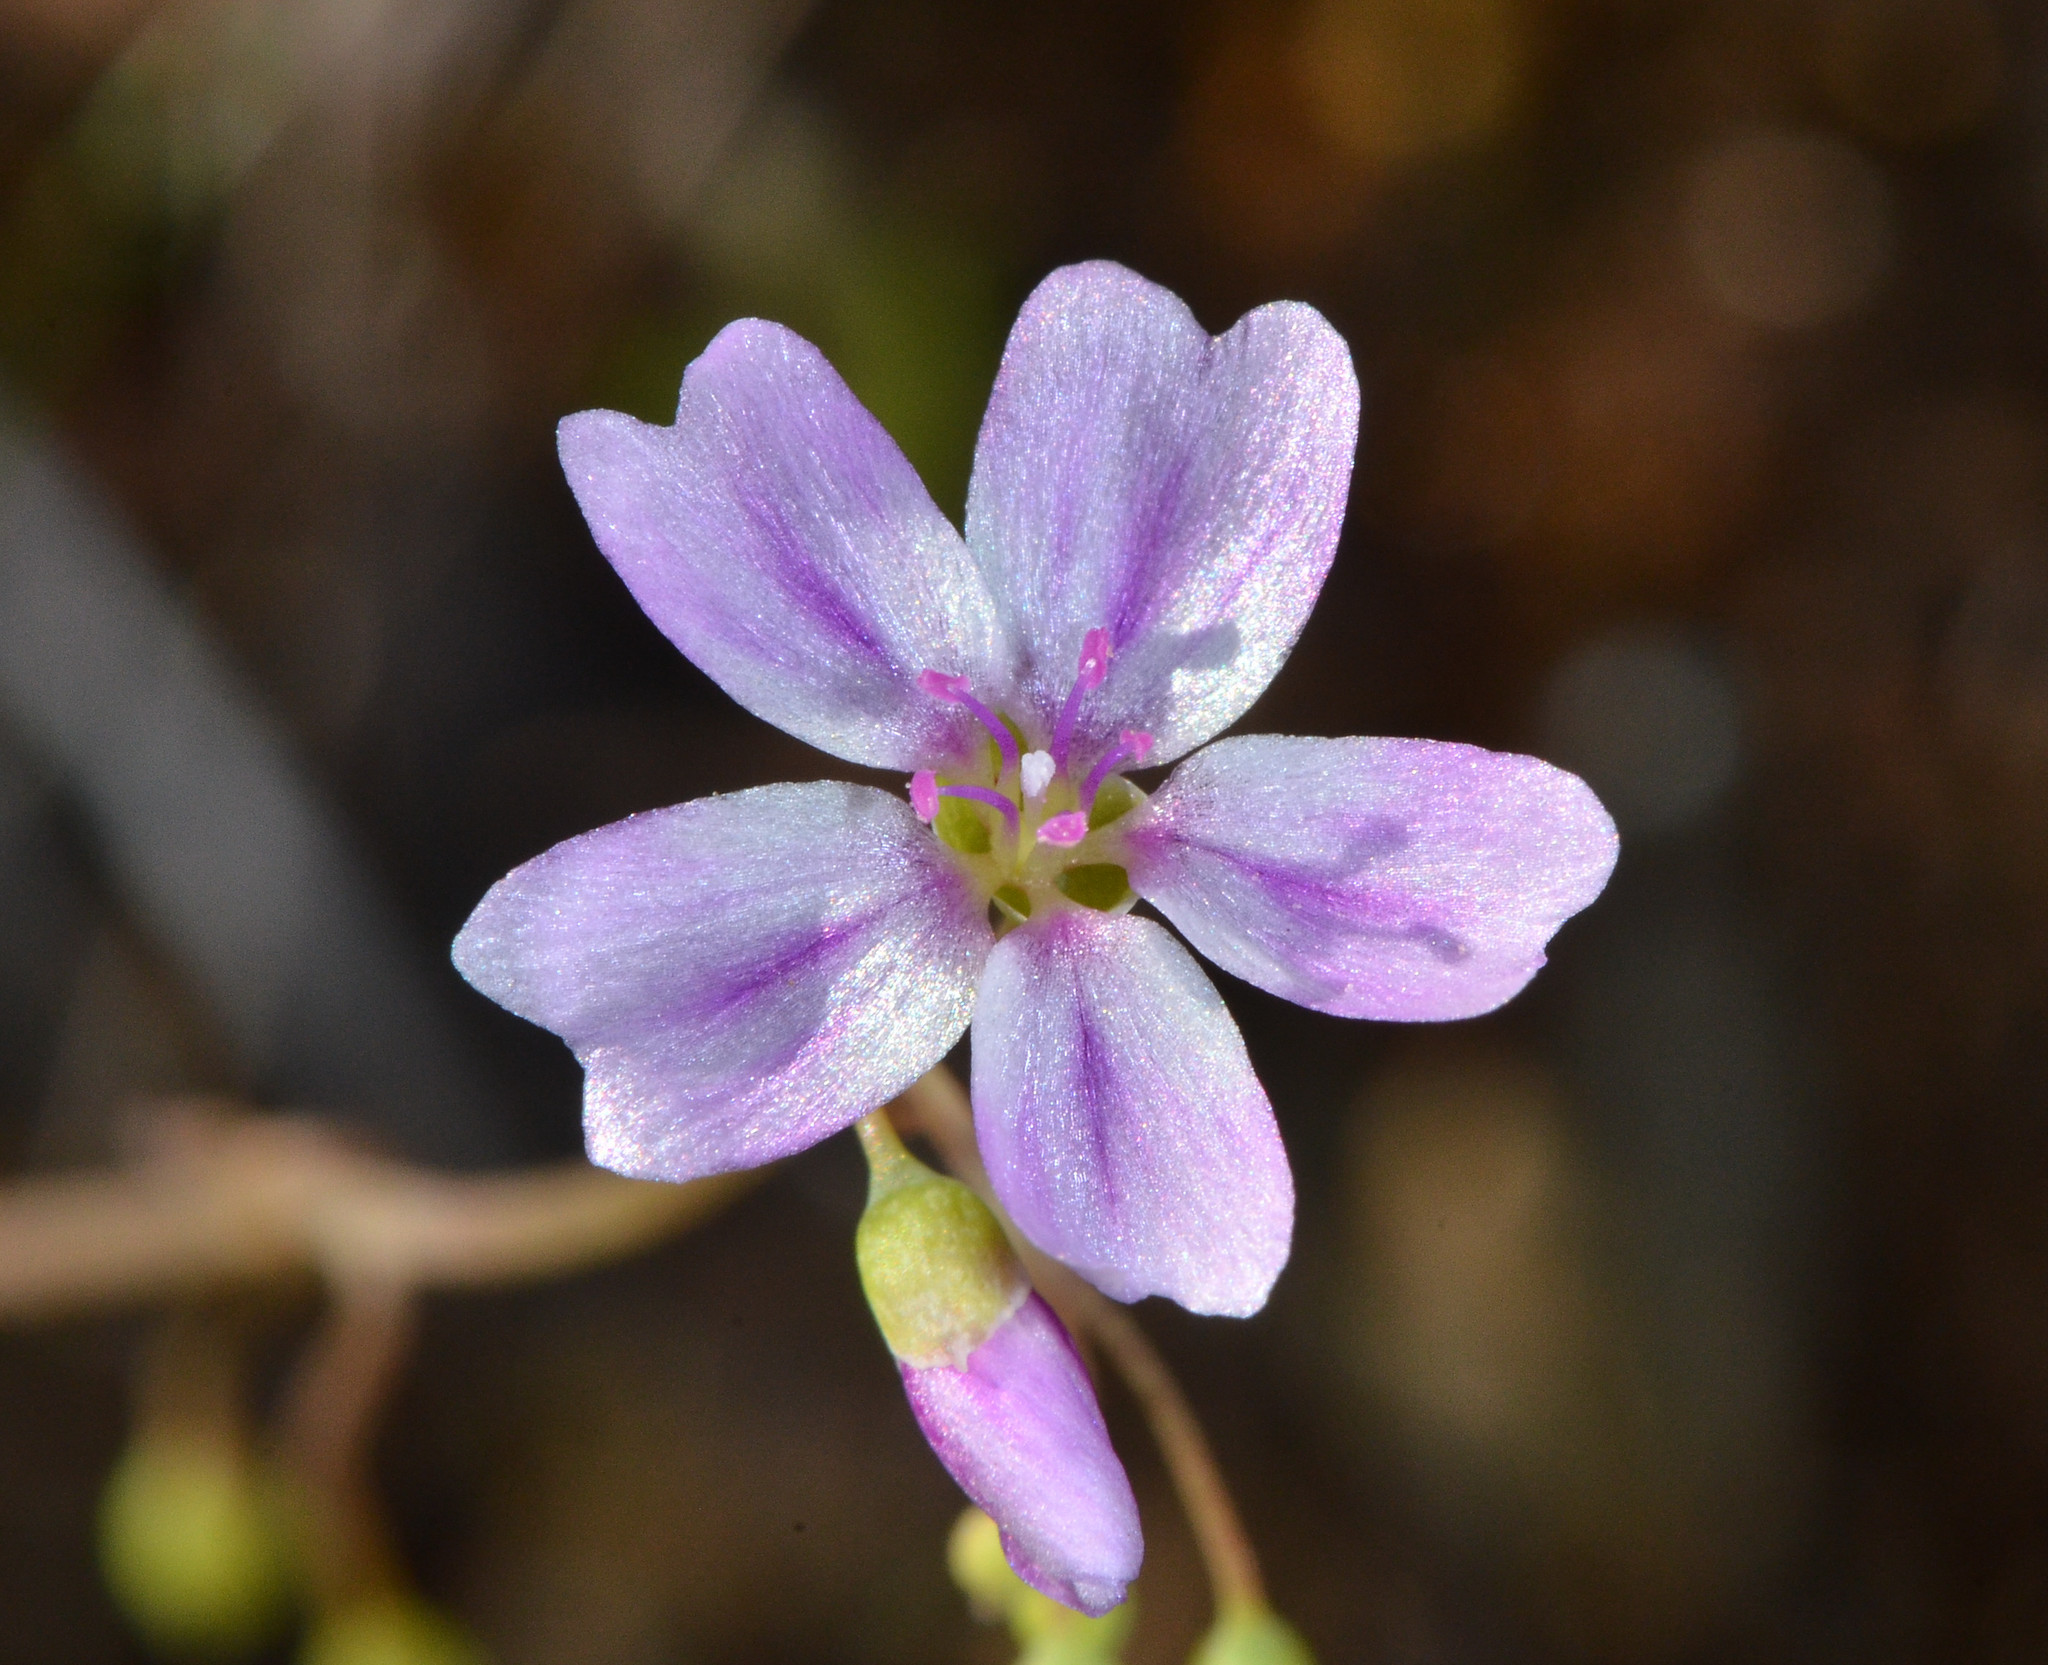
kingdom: Plantae
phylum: Tracheophyta
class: Magnoliopsida
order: Caryophyllales
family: Montiaceae
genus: Claytonia
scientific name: Claytonia gypsophiloides
